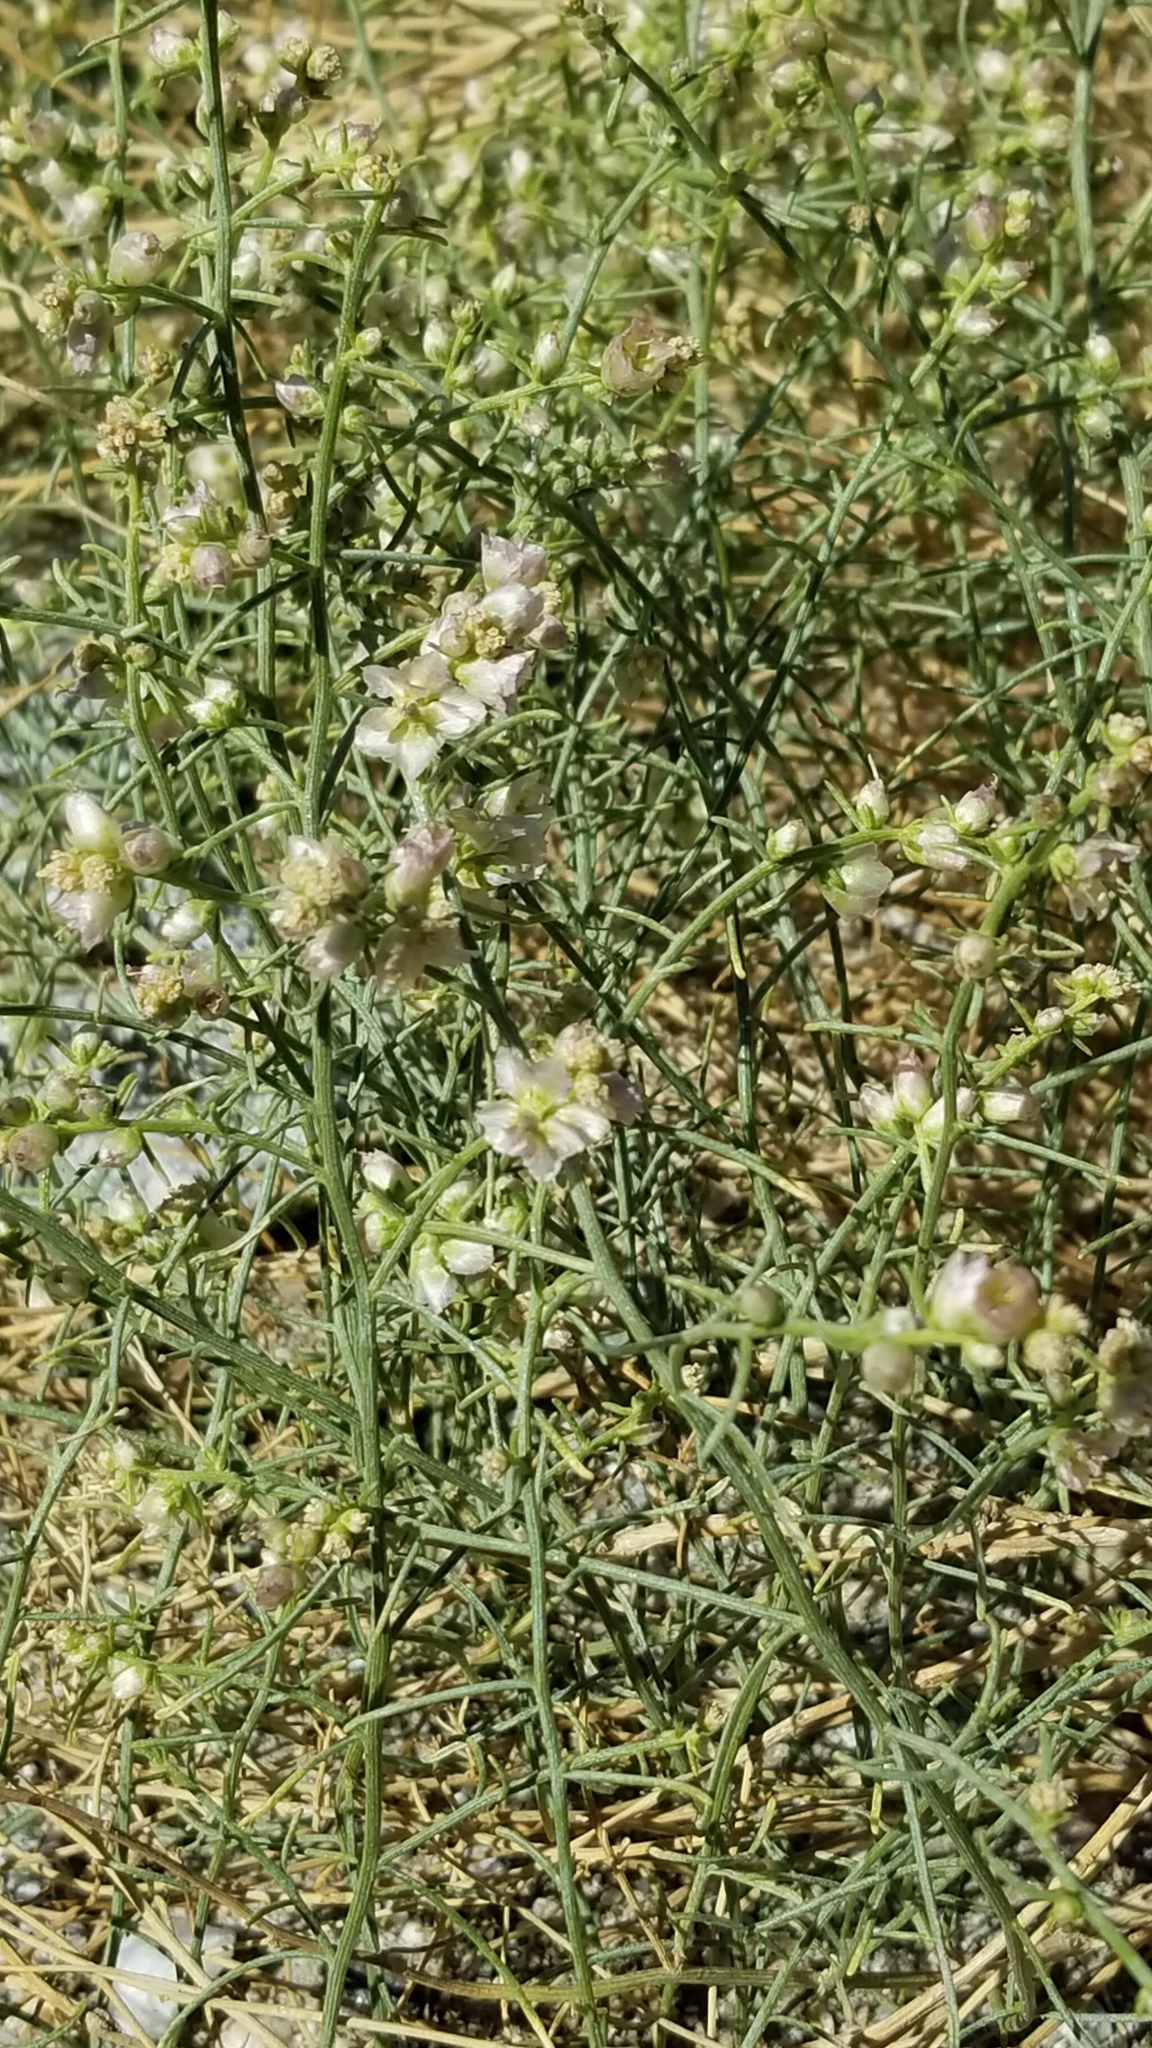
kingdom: Plantae
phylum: Tracheophyta
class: Magnoliopsida
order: Asterales
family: Asteraceae
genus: Ambrosia
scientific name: Ambrosia salsola
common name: Burrobrush
